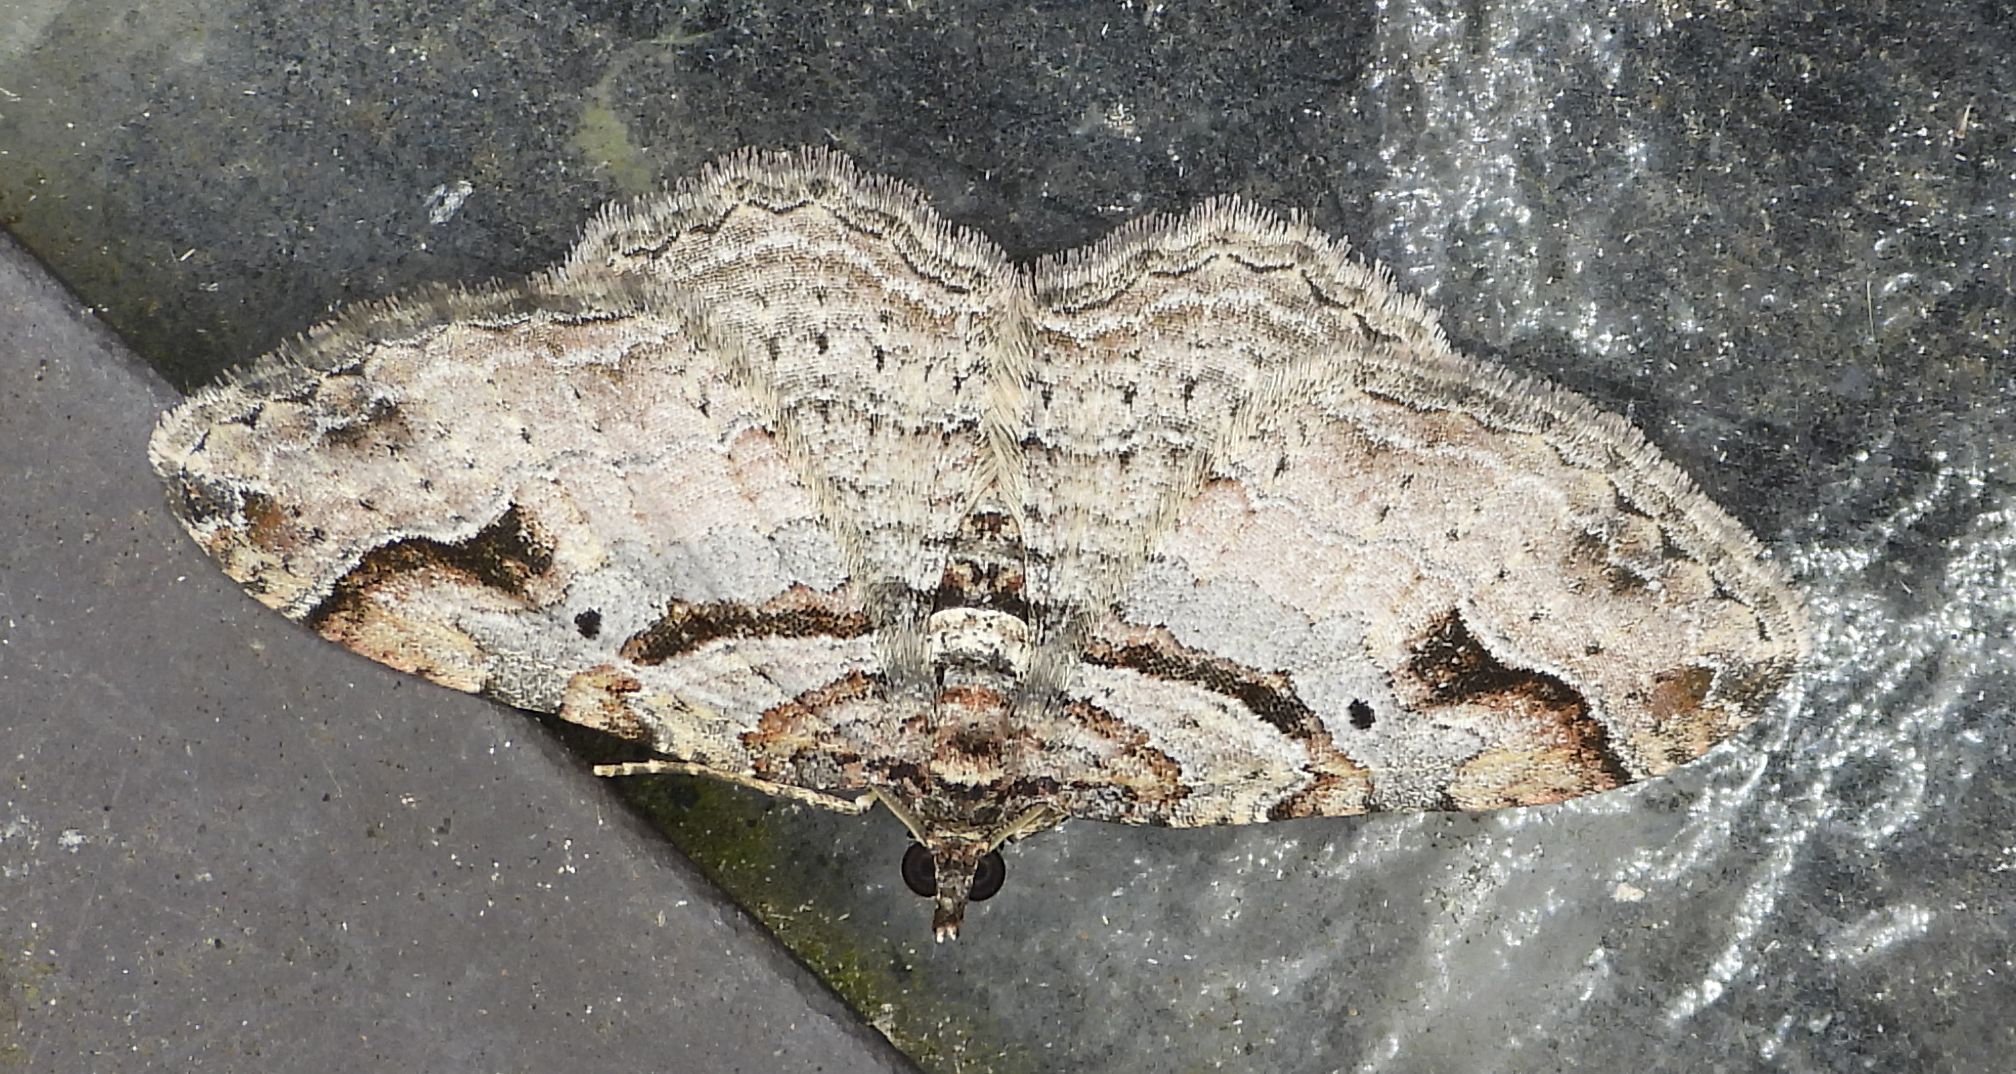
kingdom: Animalia
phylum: Arthropoda
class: Insecta
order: Lepidoptera
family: Geometridae
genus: Costaconvexa
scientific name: Costaconvexa centrostrigaria
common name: Bent-line carpet
